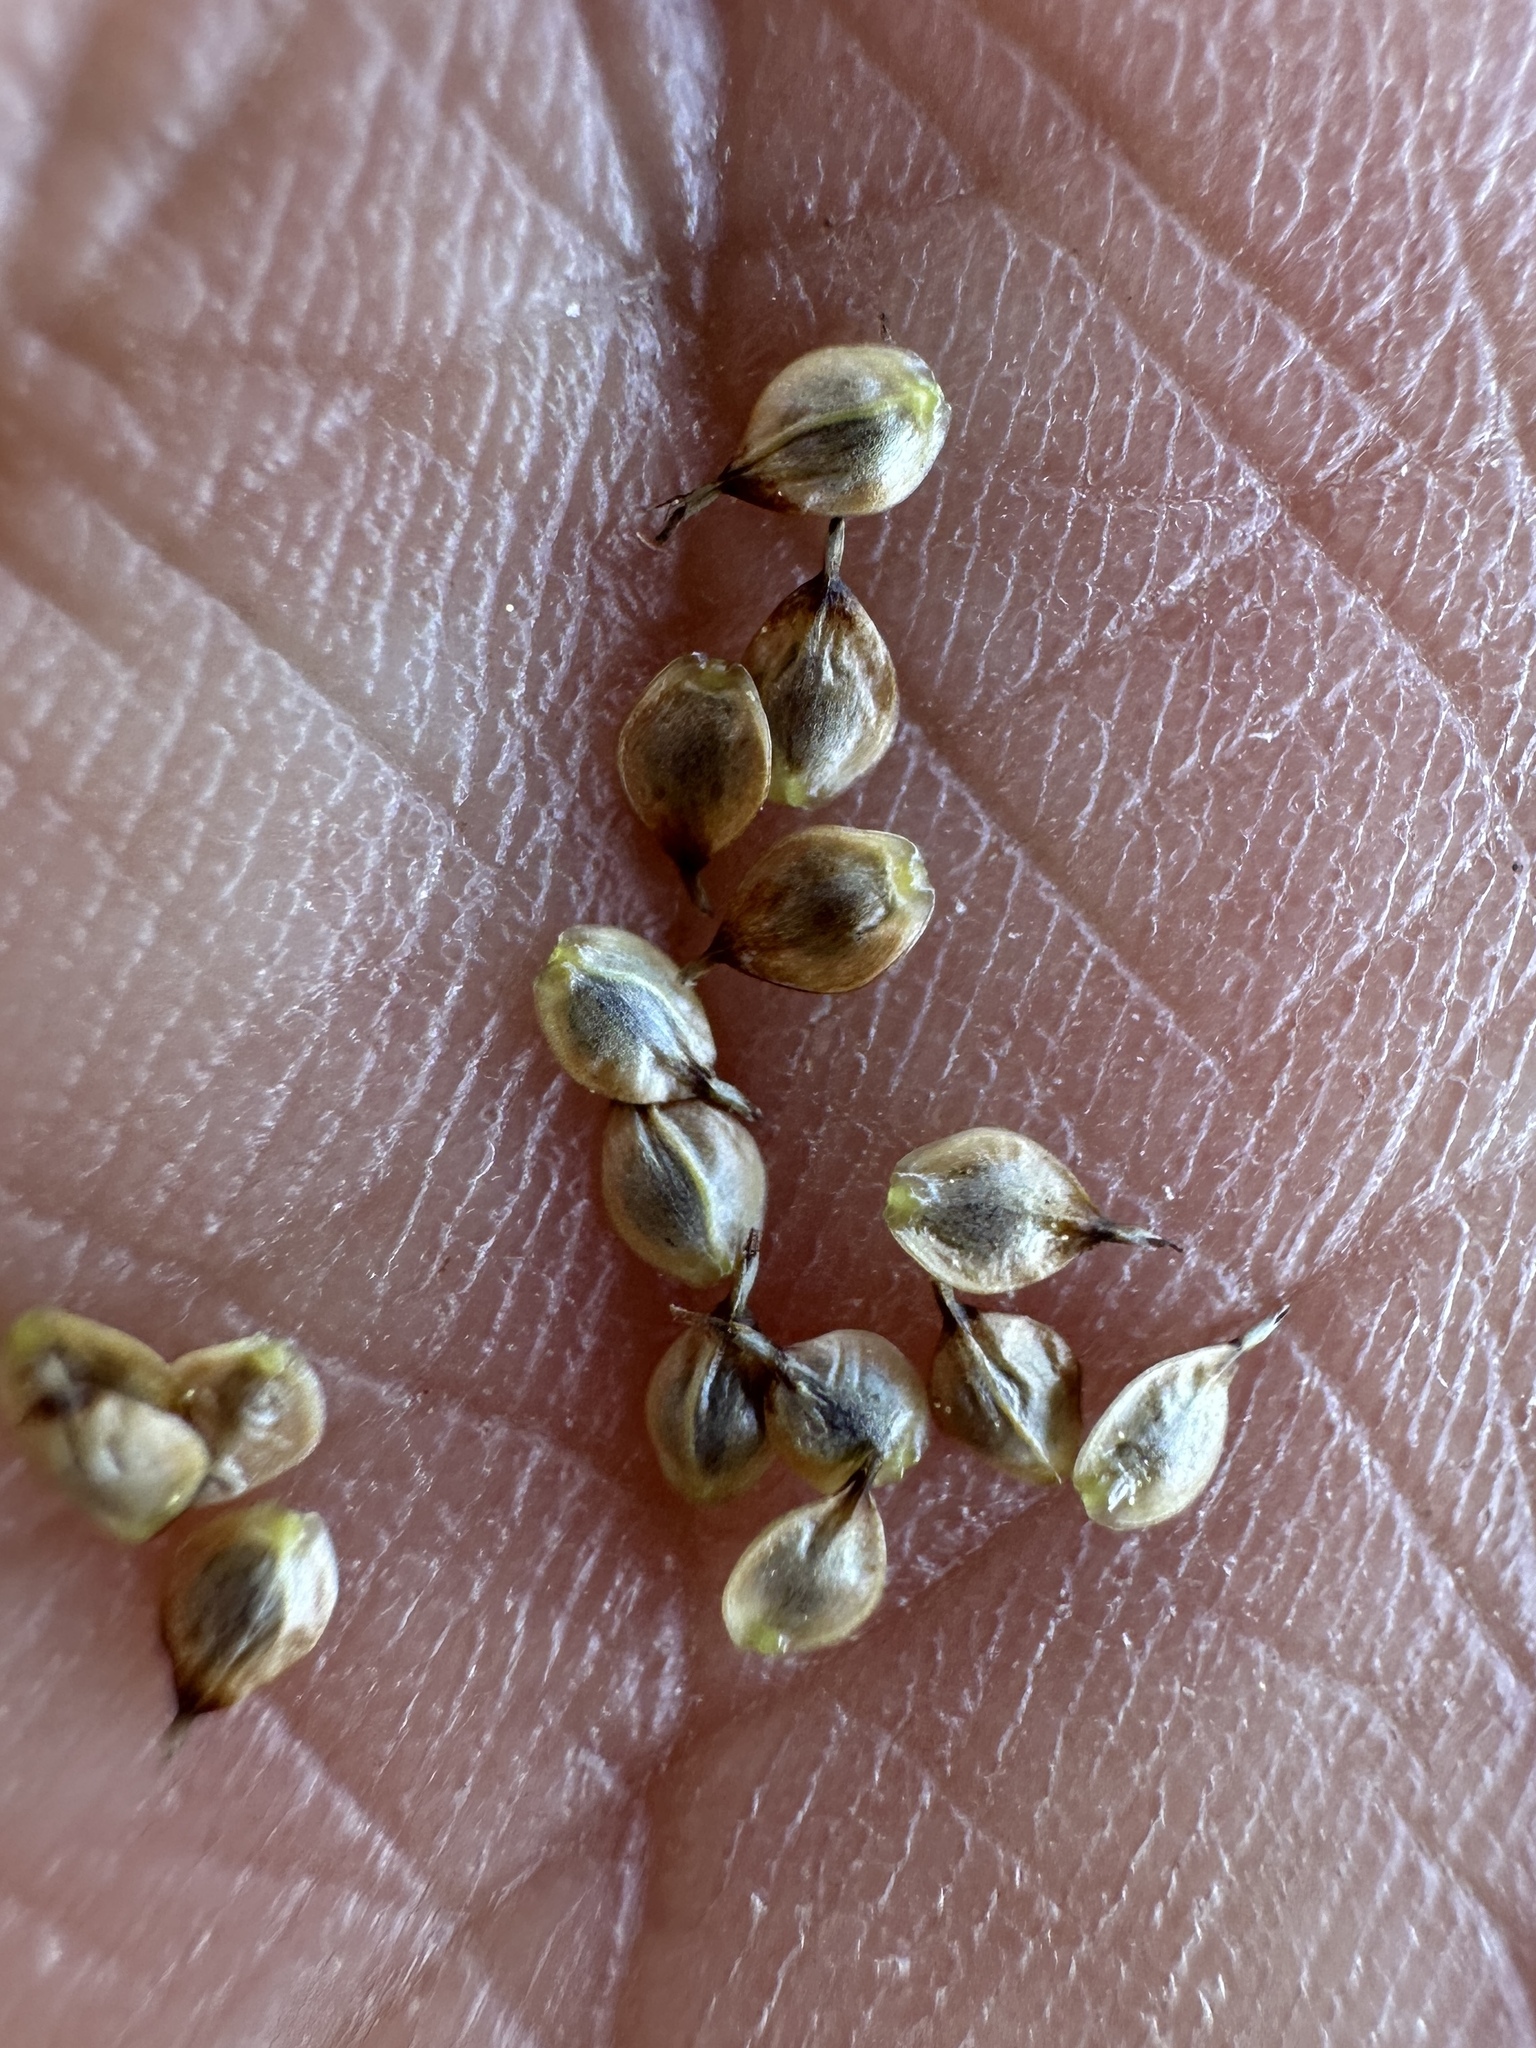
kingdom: Plantae
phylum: Tracheophyta
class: Liliopsida
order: Poales
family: Cyperaceae
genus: Carex
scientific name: Carex capitata
